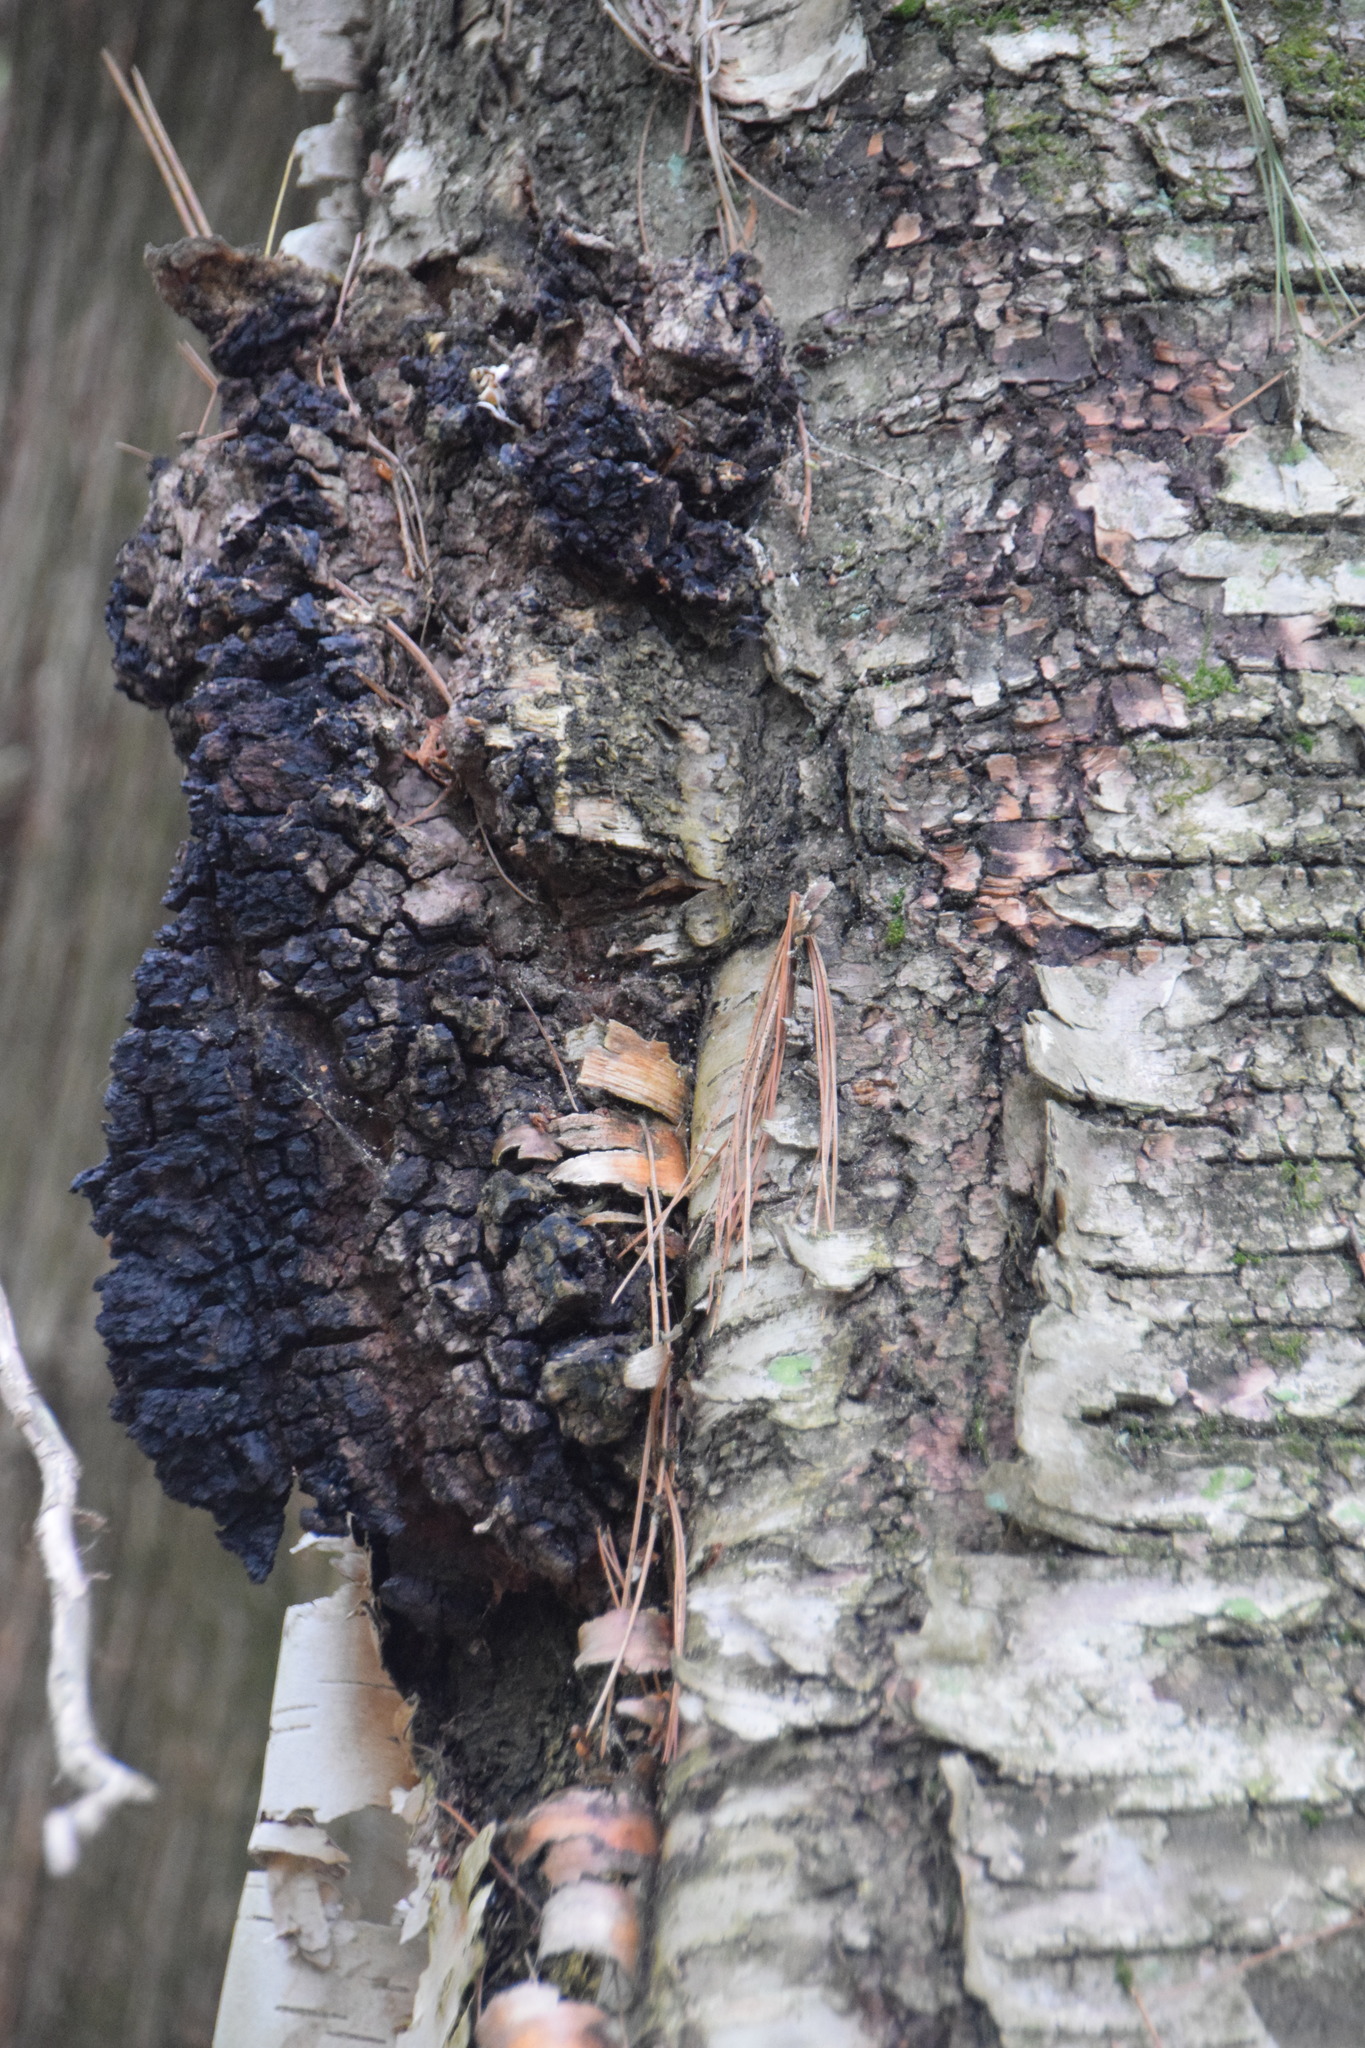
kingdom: Fungi
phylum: Basidiomycota
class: Agaricomycetes
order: Hymenochaetales
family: Hymenochaetaceae
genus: Inonotus
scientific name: Inonotus obliquus
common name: Chaga
